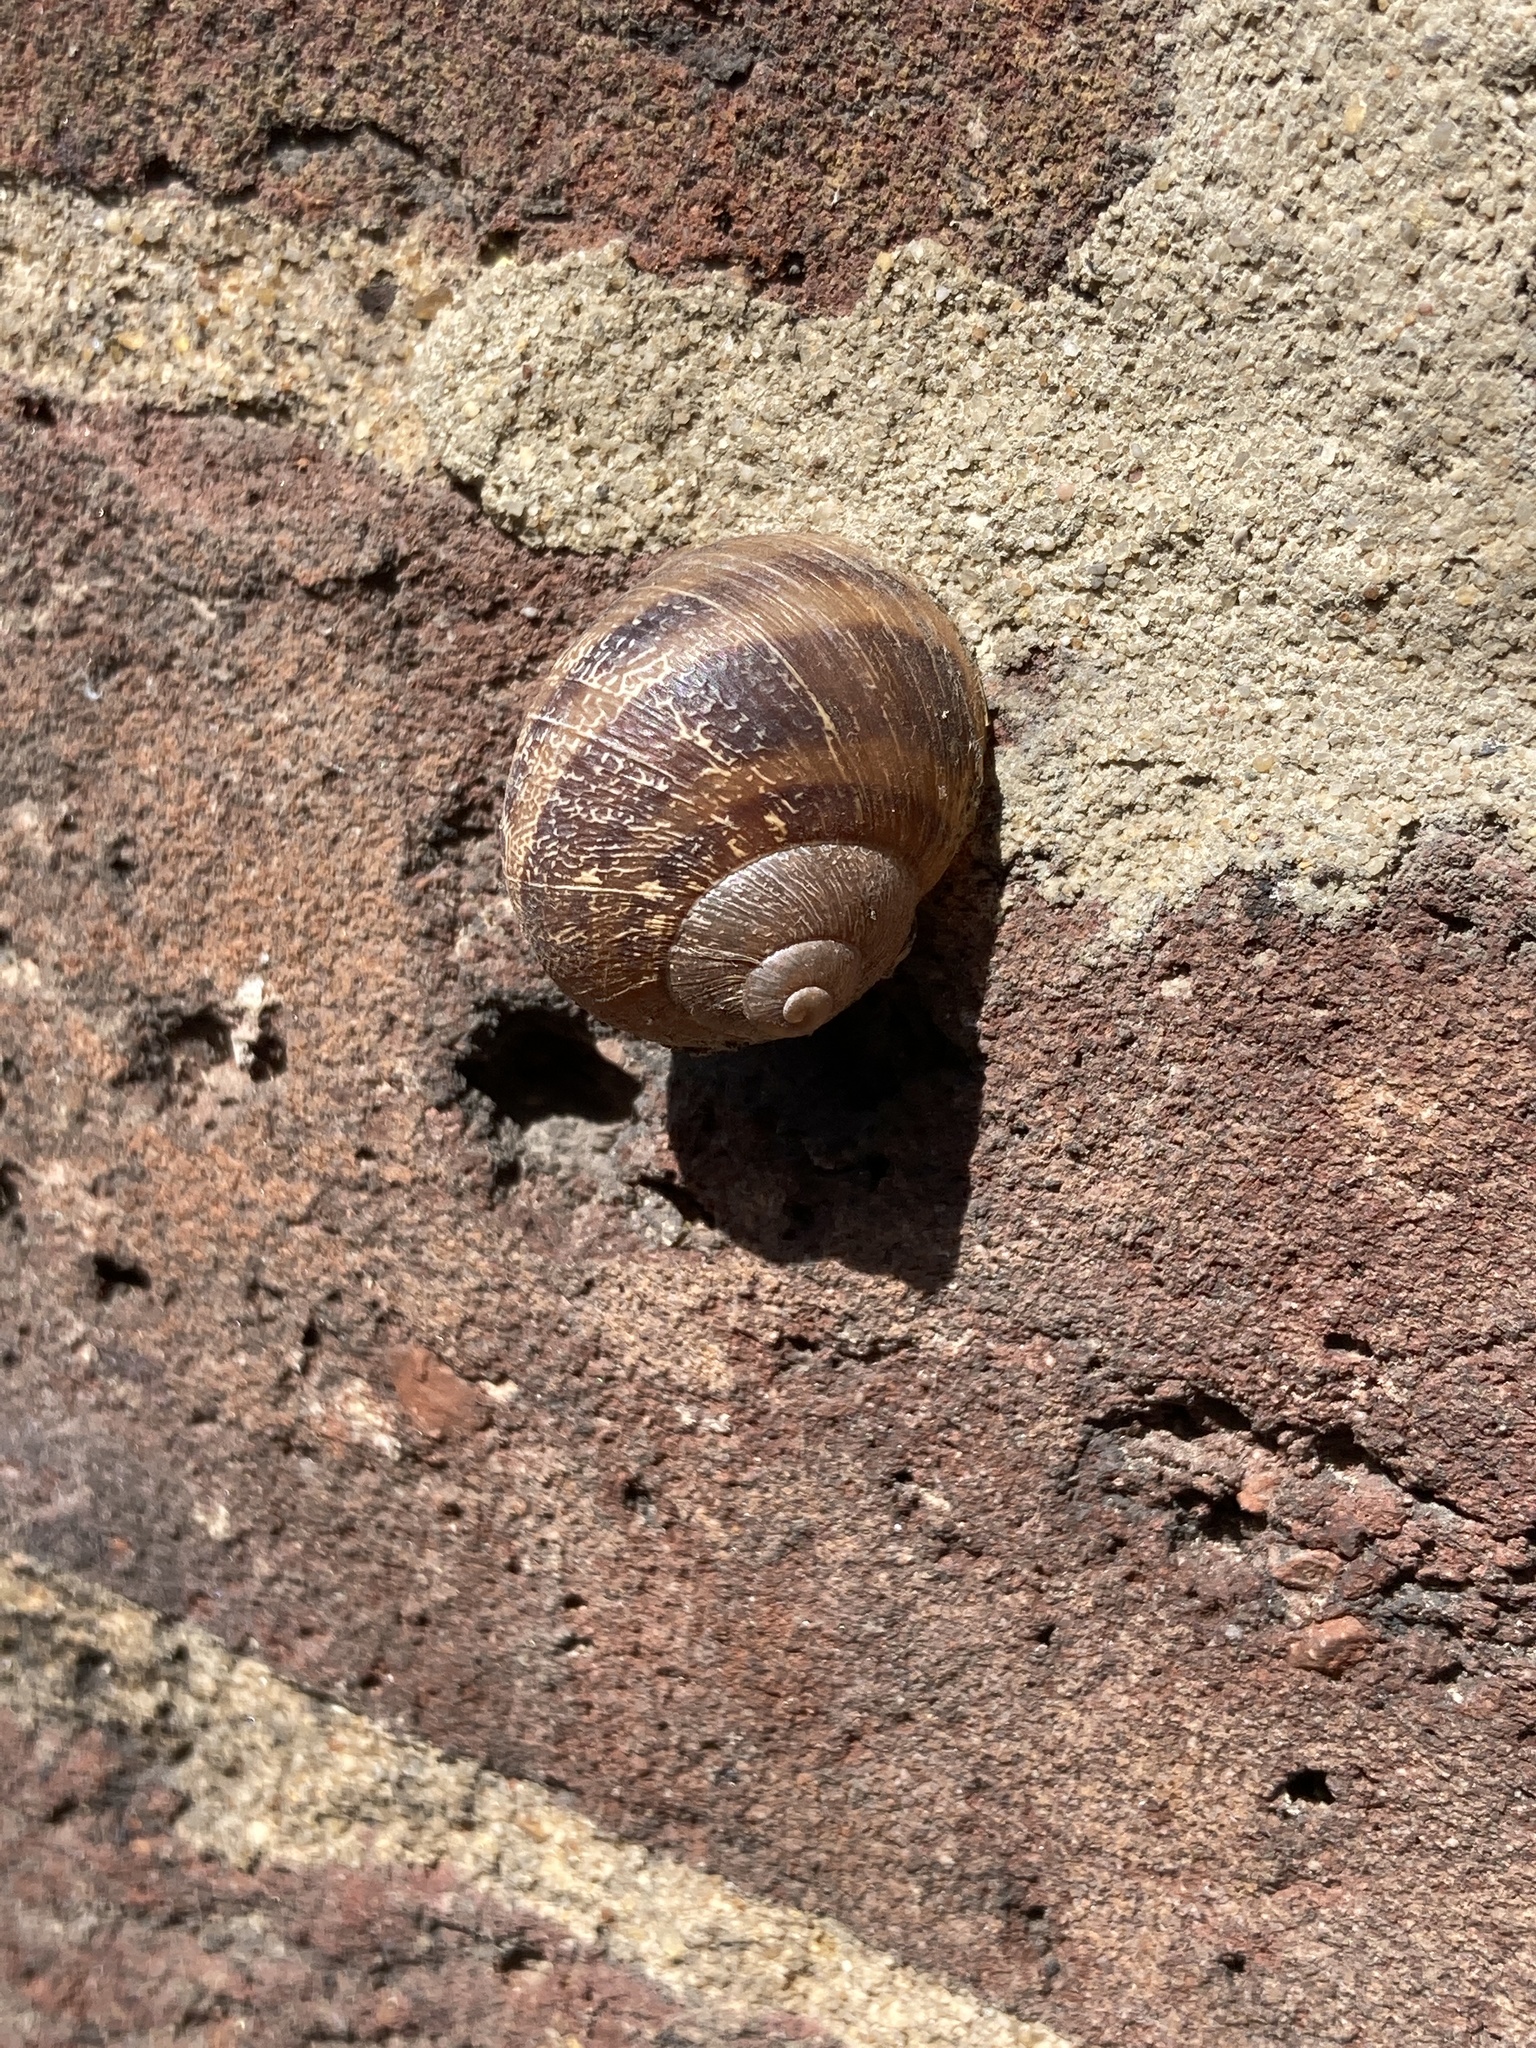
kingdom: Animalia
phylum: Mollusca
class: Gastropoda
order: Stylommatophora
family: Helicidae
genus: Cornu
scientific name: Cornu aspersum
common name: Brown garden snail
